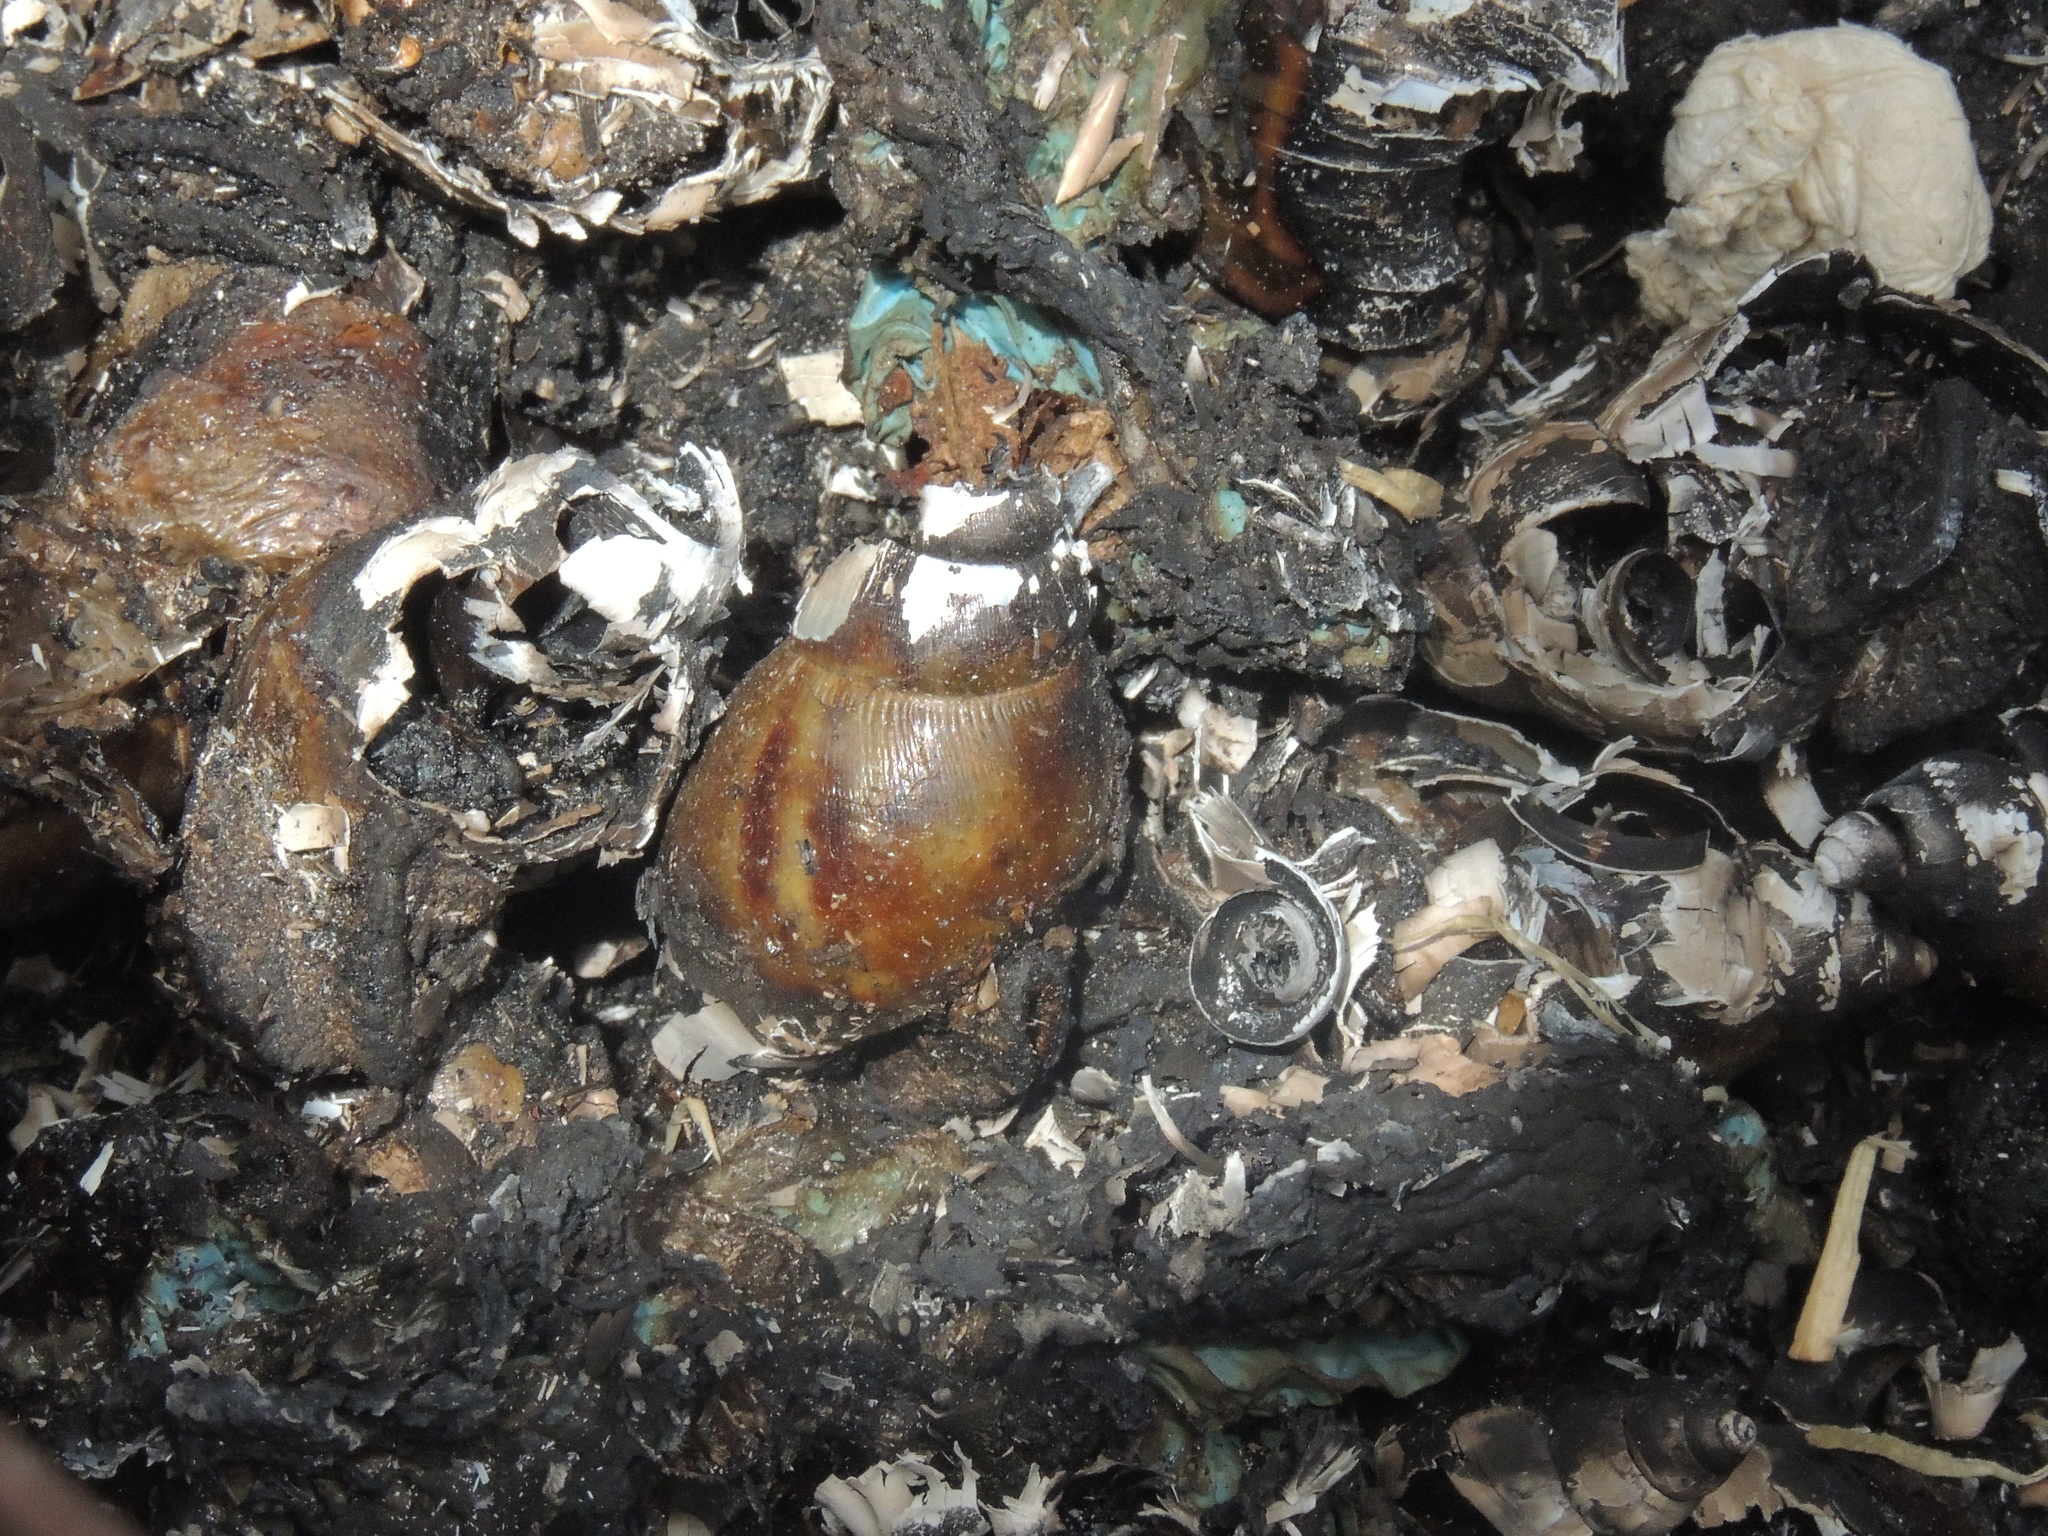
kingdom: Animalia
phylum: Mollusca
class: Gastropoda
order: Stylommatophora
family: Achatinidae
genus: Lissachatina
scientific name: Lissachatina fulica
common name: Giant african snail
